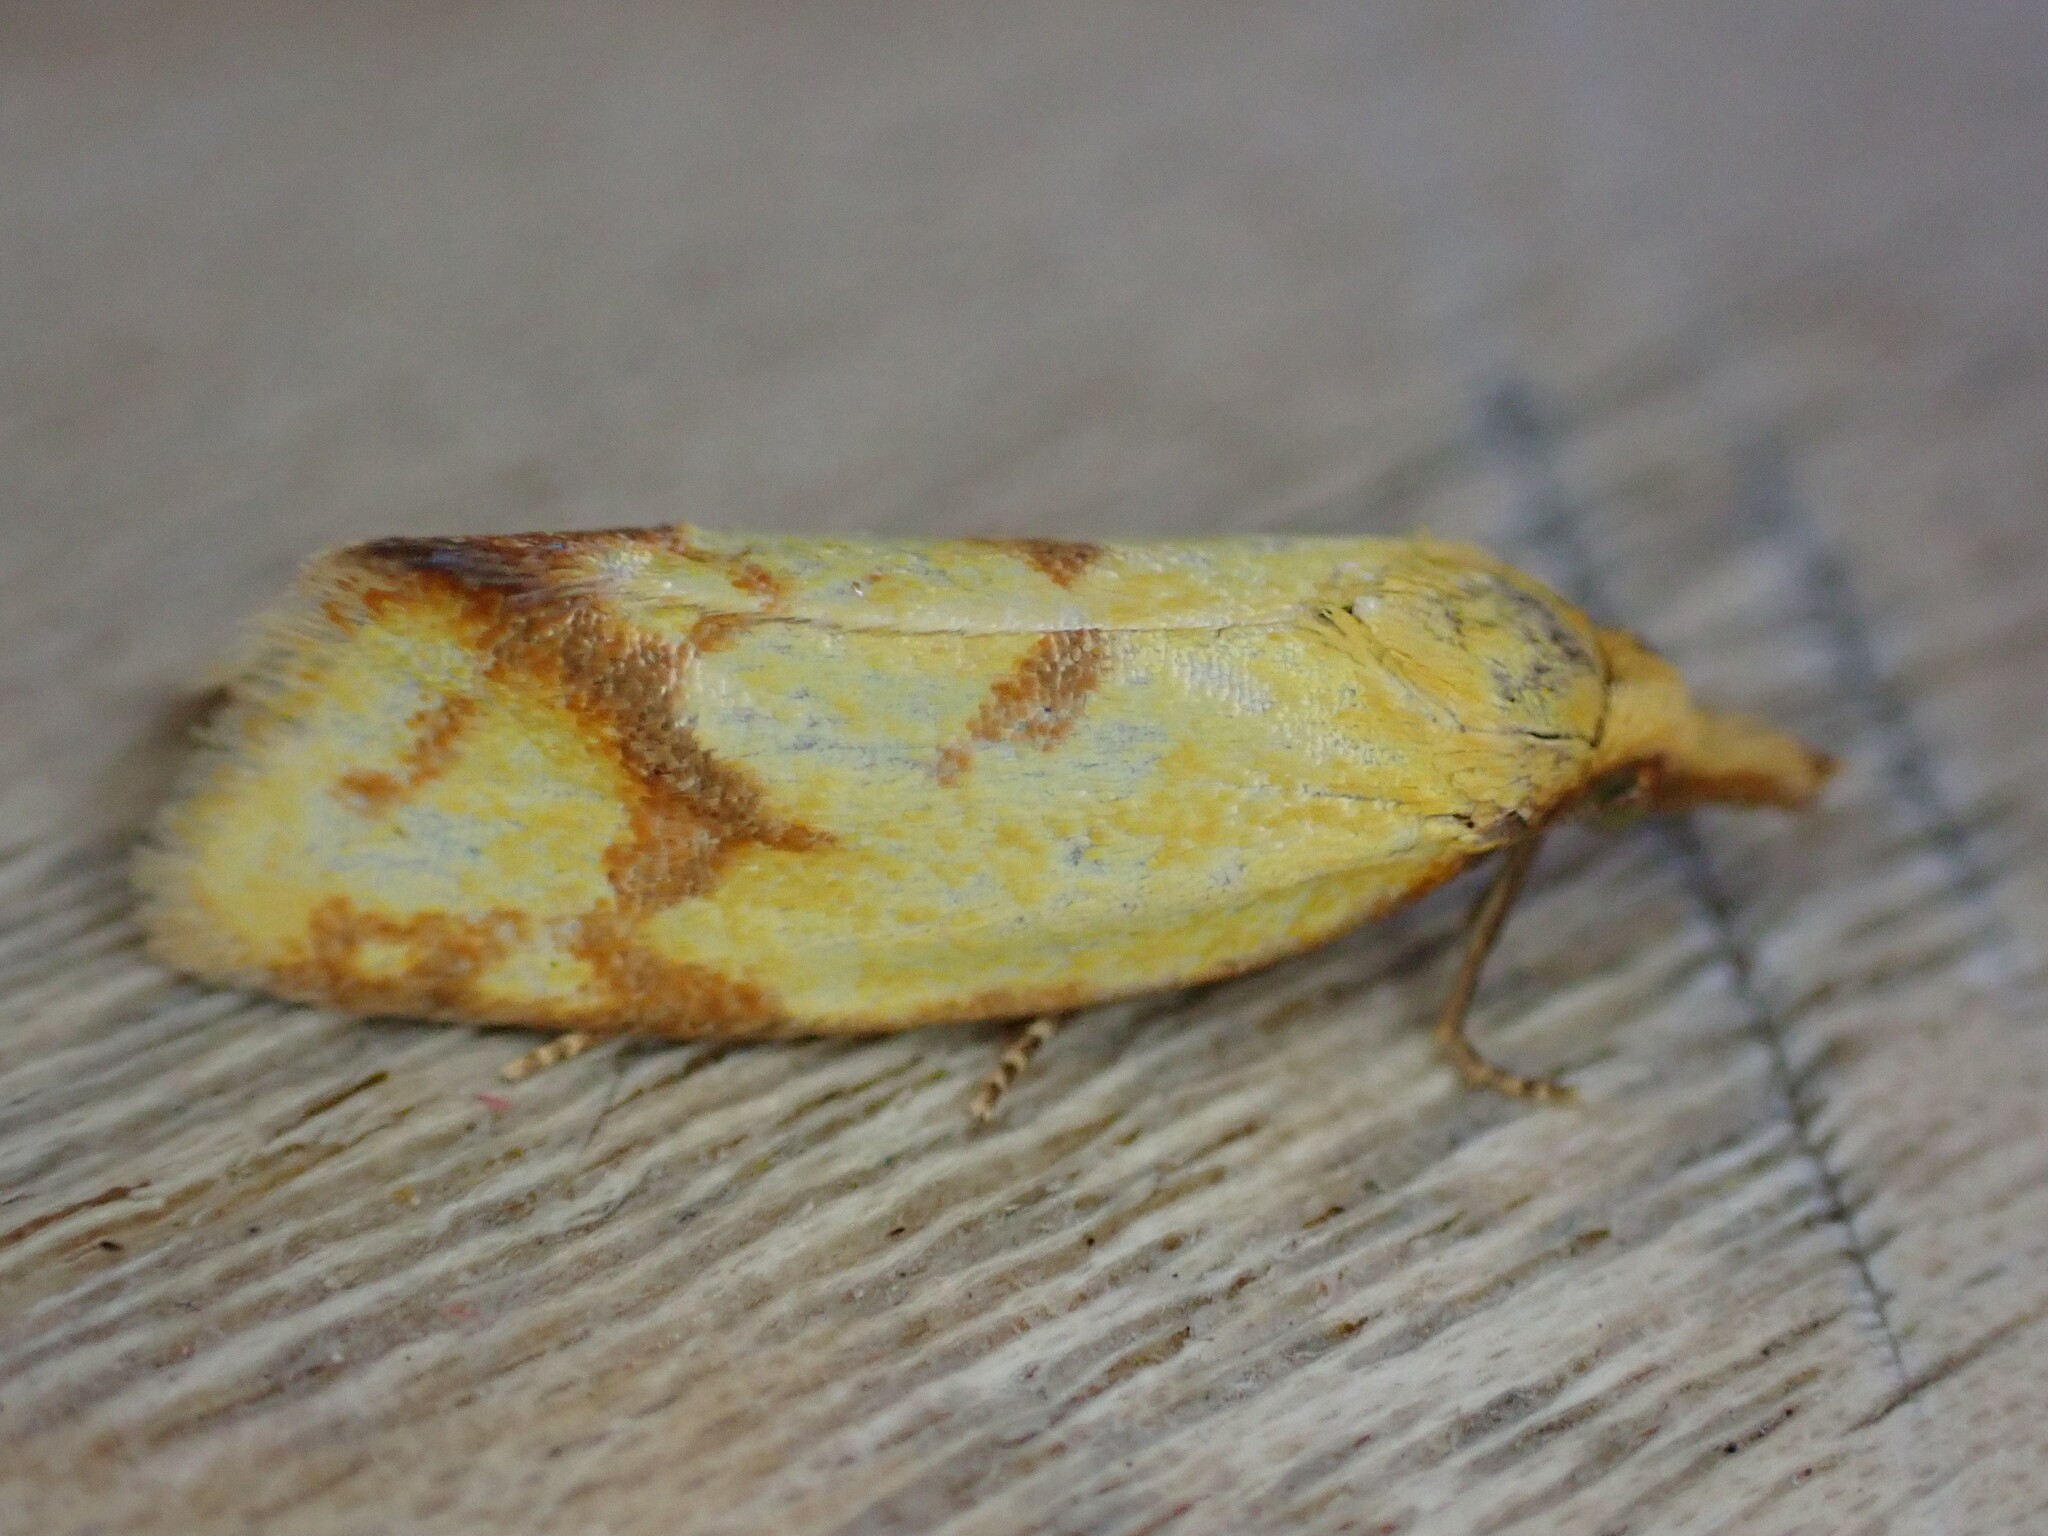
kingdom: Animalia
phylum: Arthropoda
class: Insecta
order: Lepidoptera
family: Tortricidae
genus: Agapeta
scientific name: Agapeta hamana
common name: Common yellow conch
